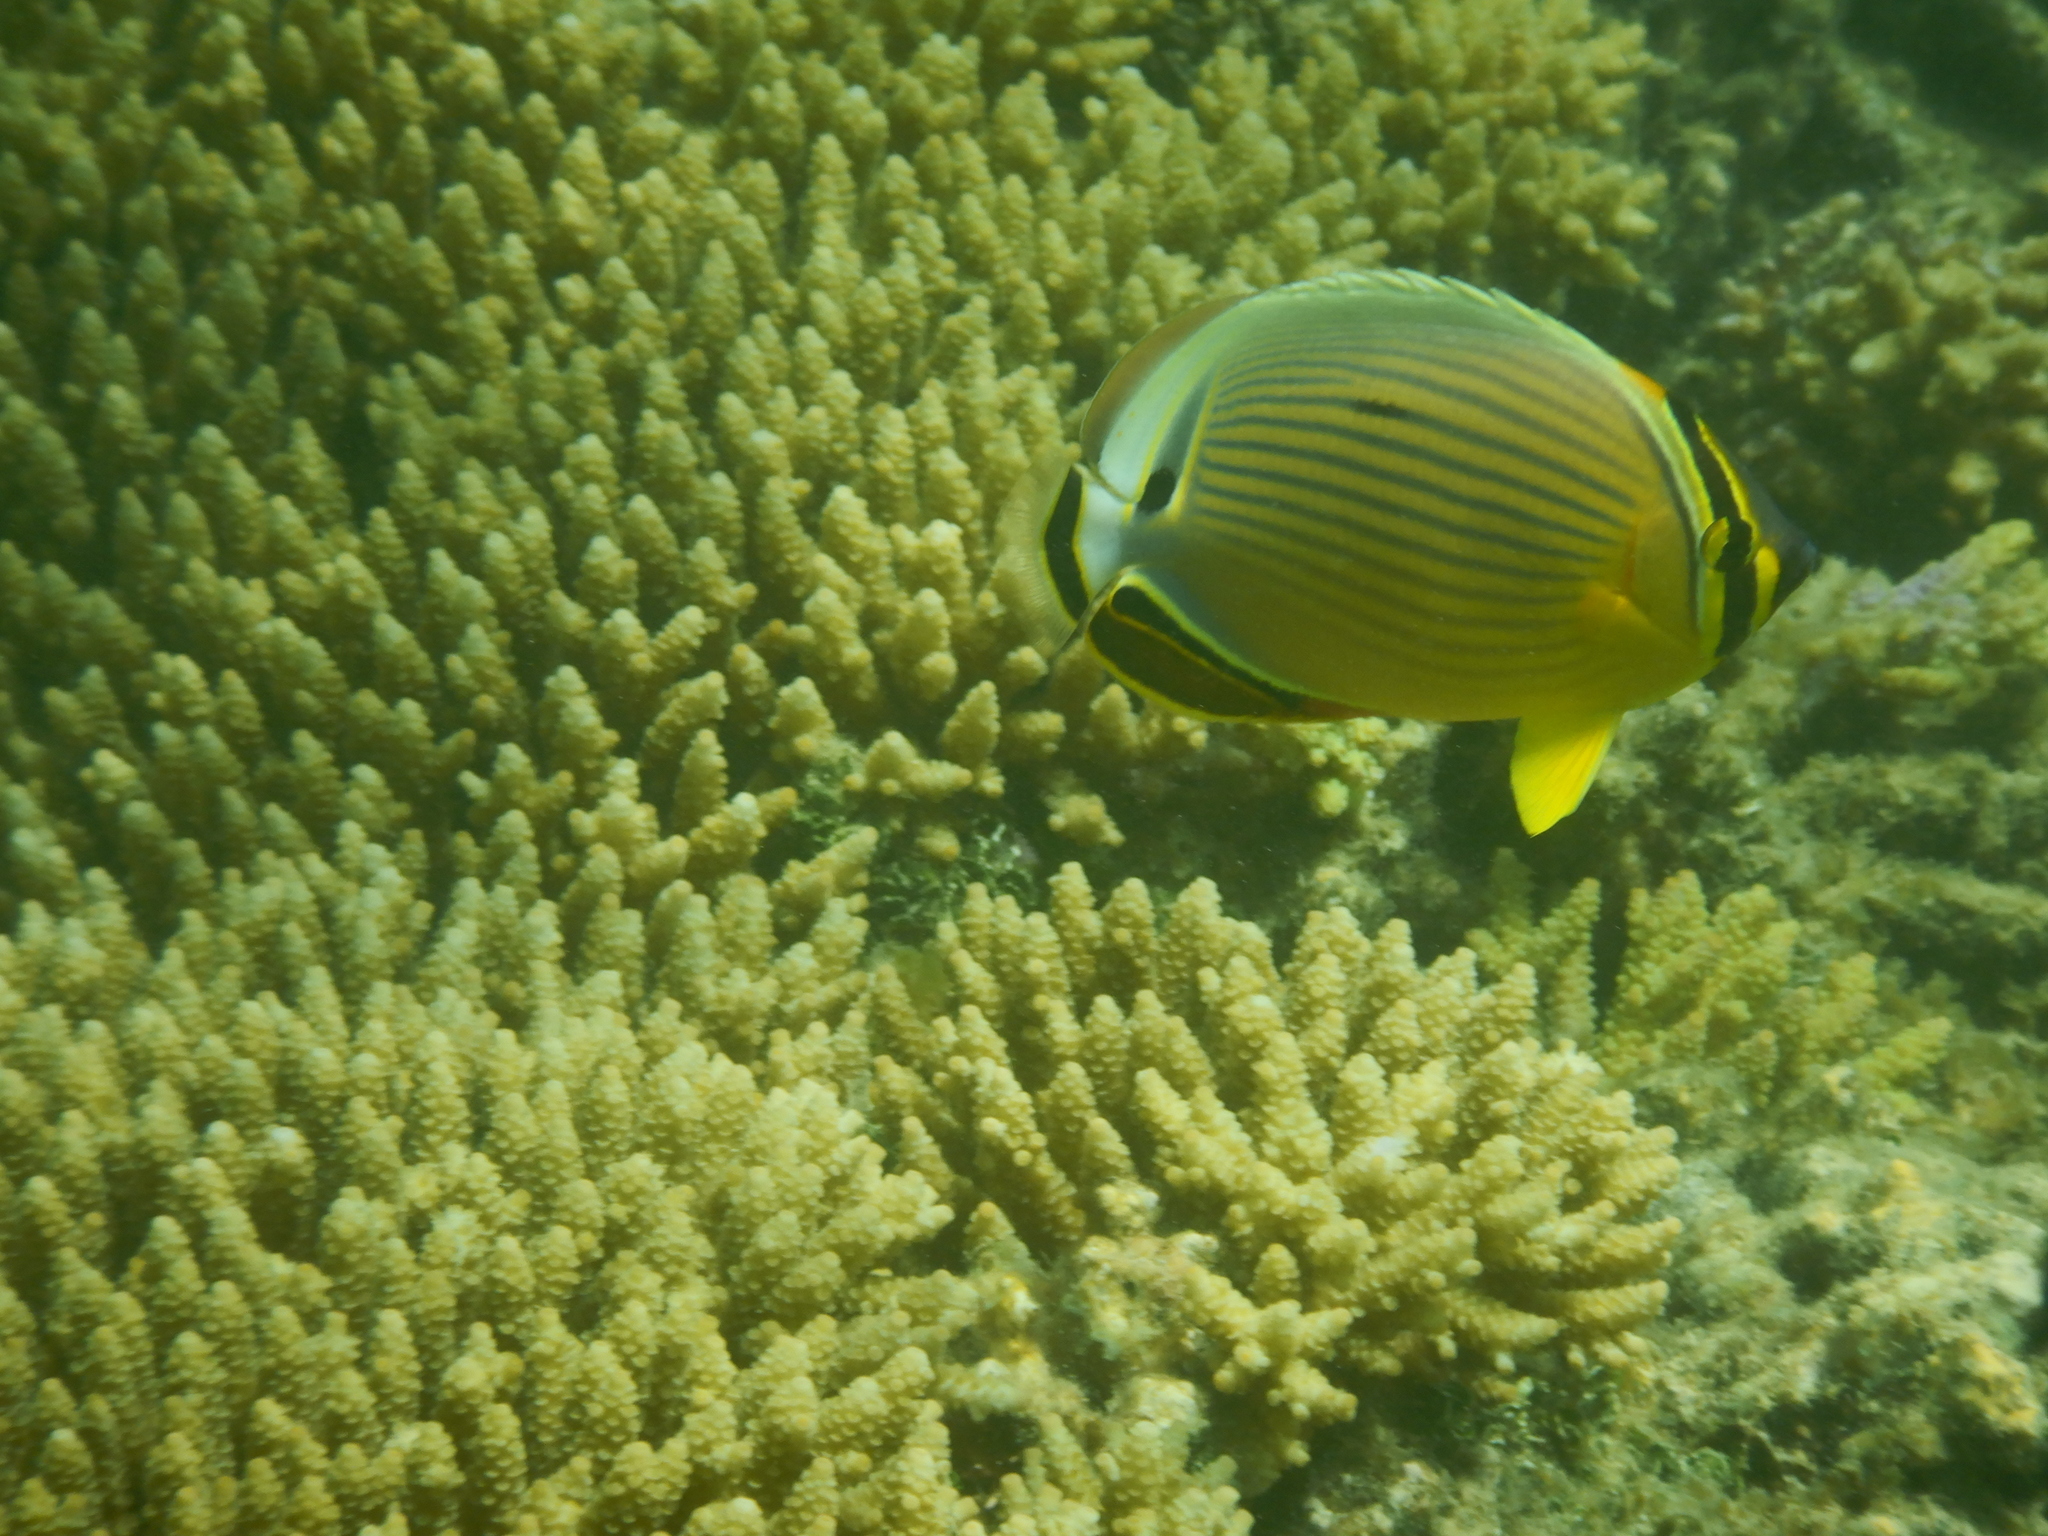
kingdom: Animalia
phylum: Chordata
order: Perciformes
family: Chaetodontidae
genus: Chaetodon
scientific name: Chaetodon lunulatus
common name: Redfin butterflyfish
